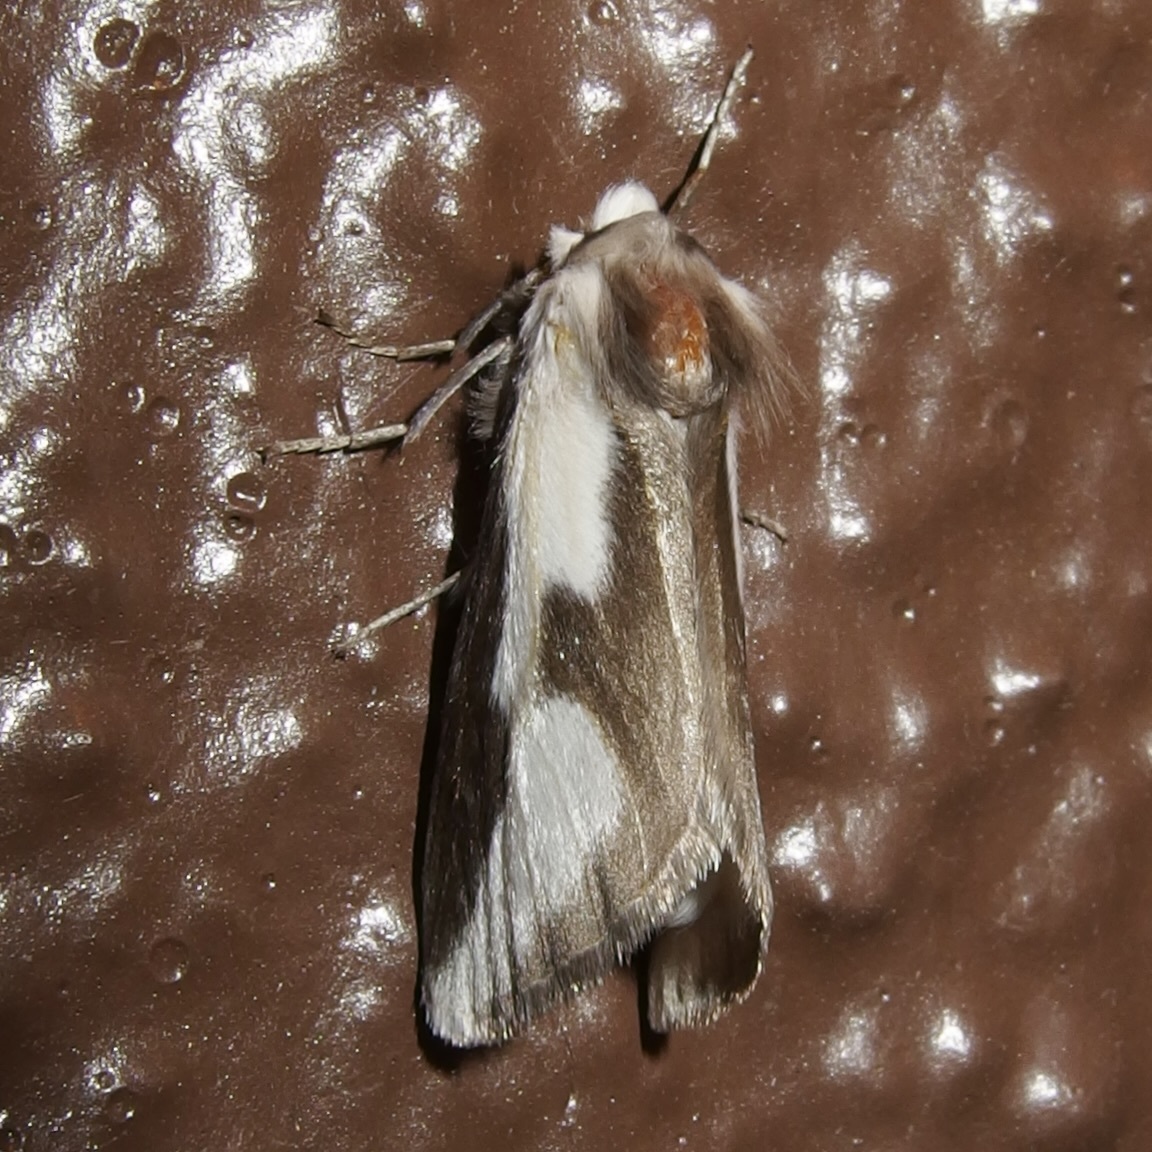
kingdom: Animalia
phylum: Arthropoda
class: Insecta
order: Lepidoptera
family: Megalopygidae
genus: Norape
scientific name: Norape tener
